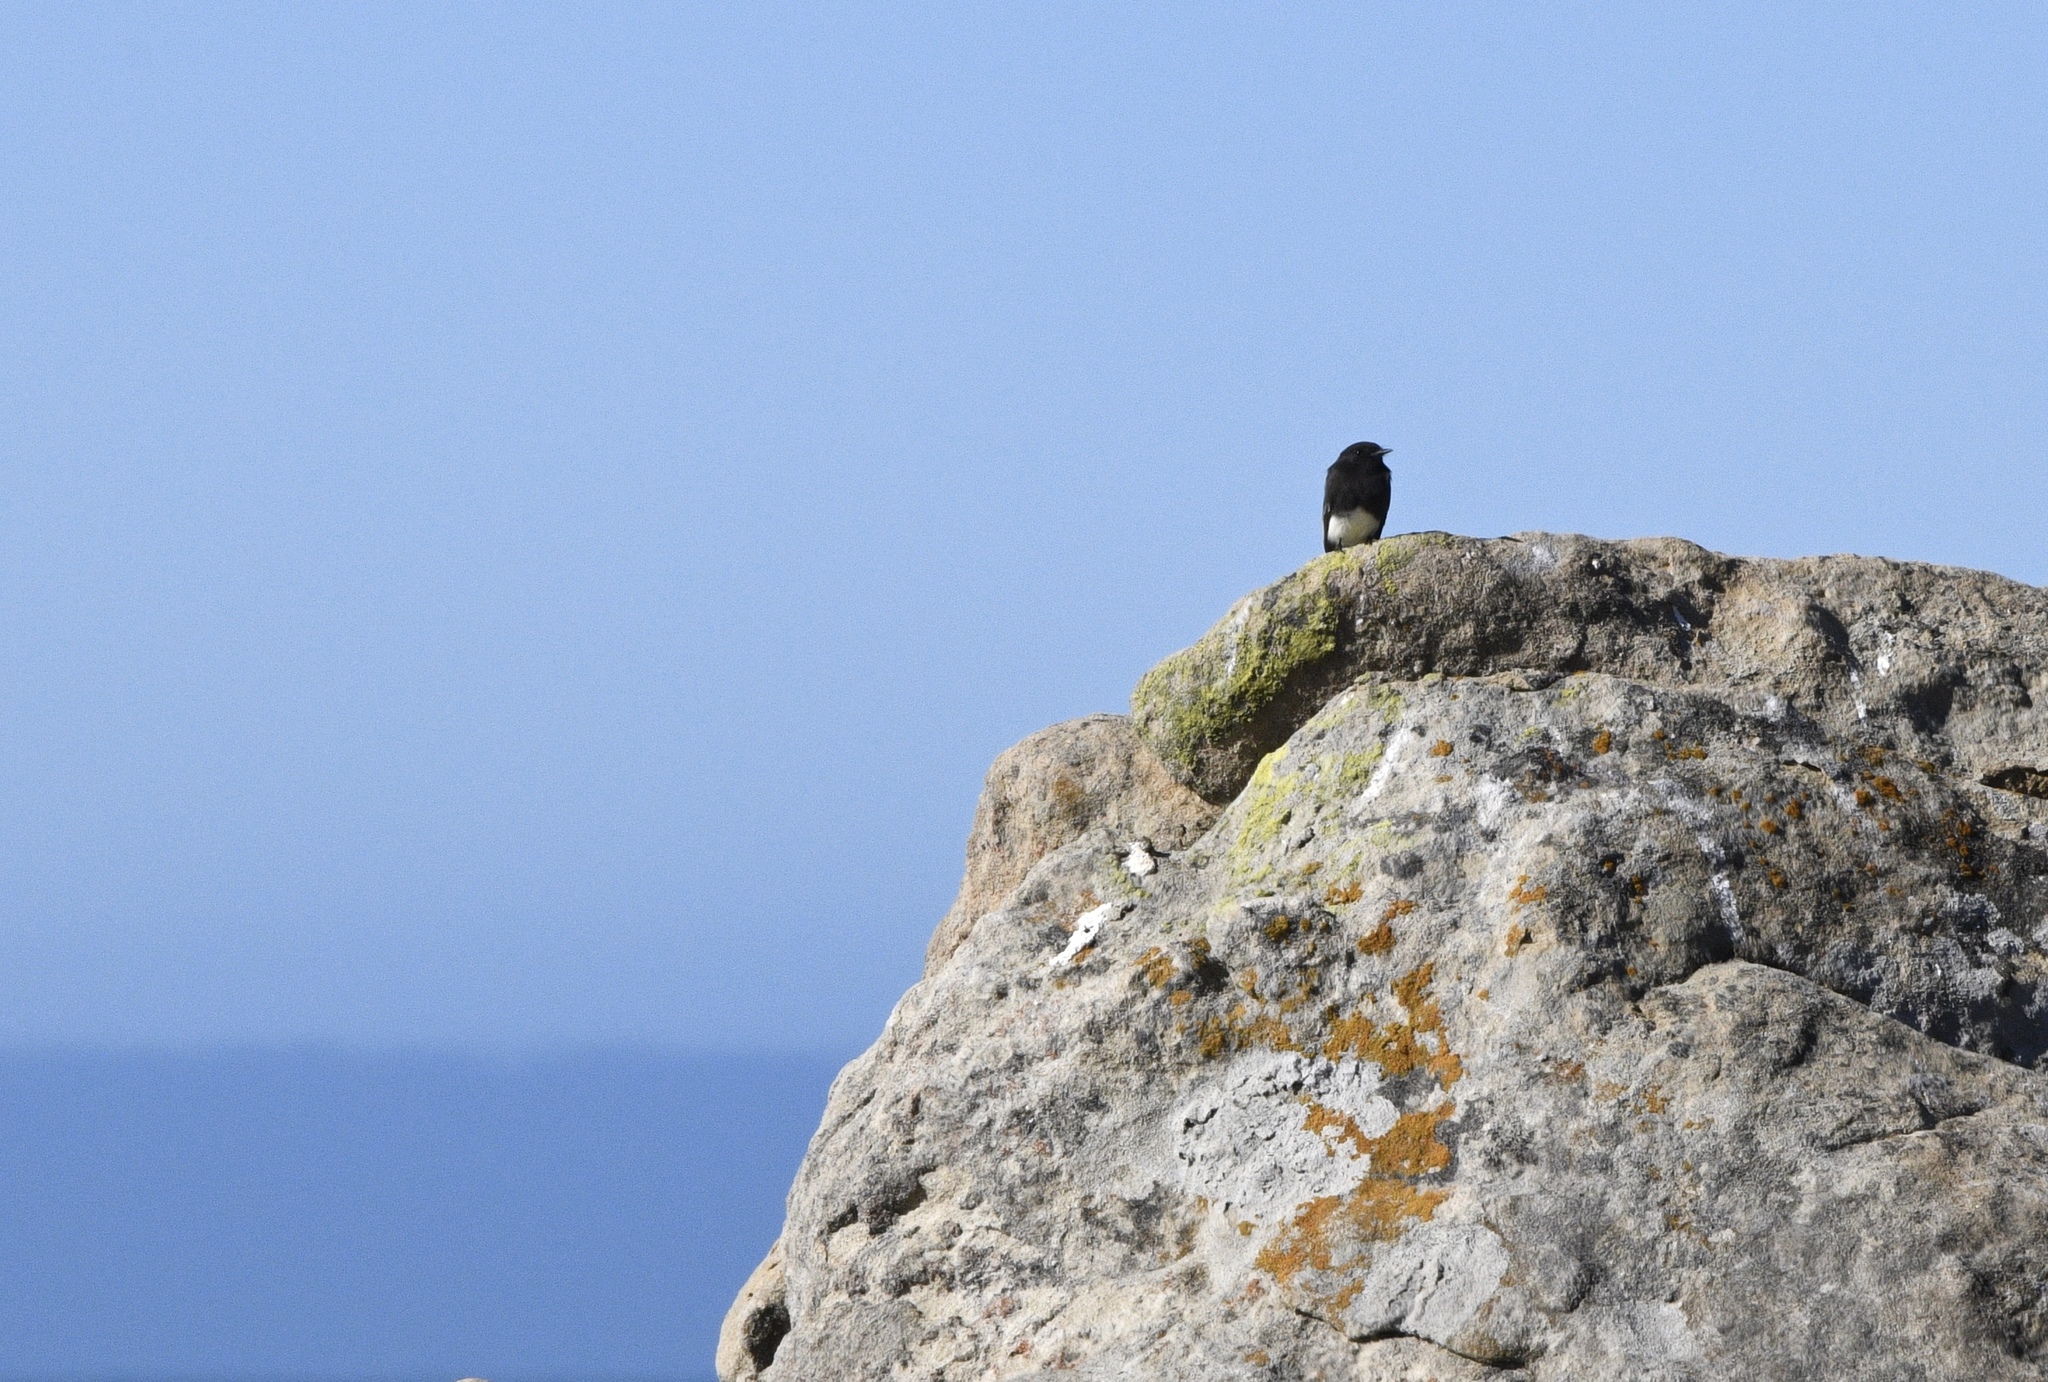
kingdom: Animalia
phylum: Chordata
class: Aves
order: Passeriformes
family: Tyrannidae
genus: Sayornis
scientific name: Sayornis nigricans
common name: Black phoebe
